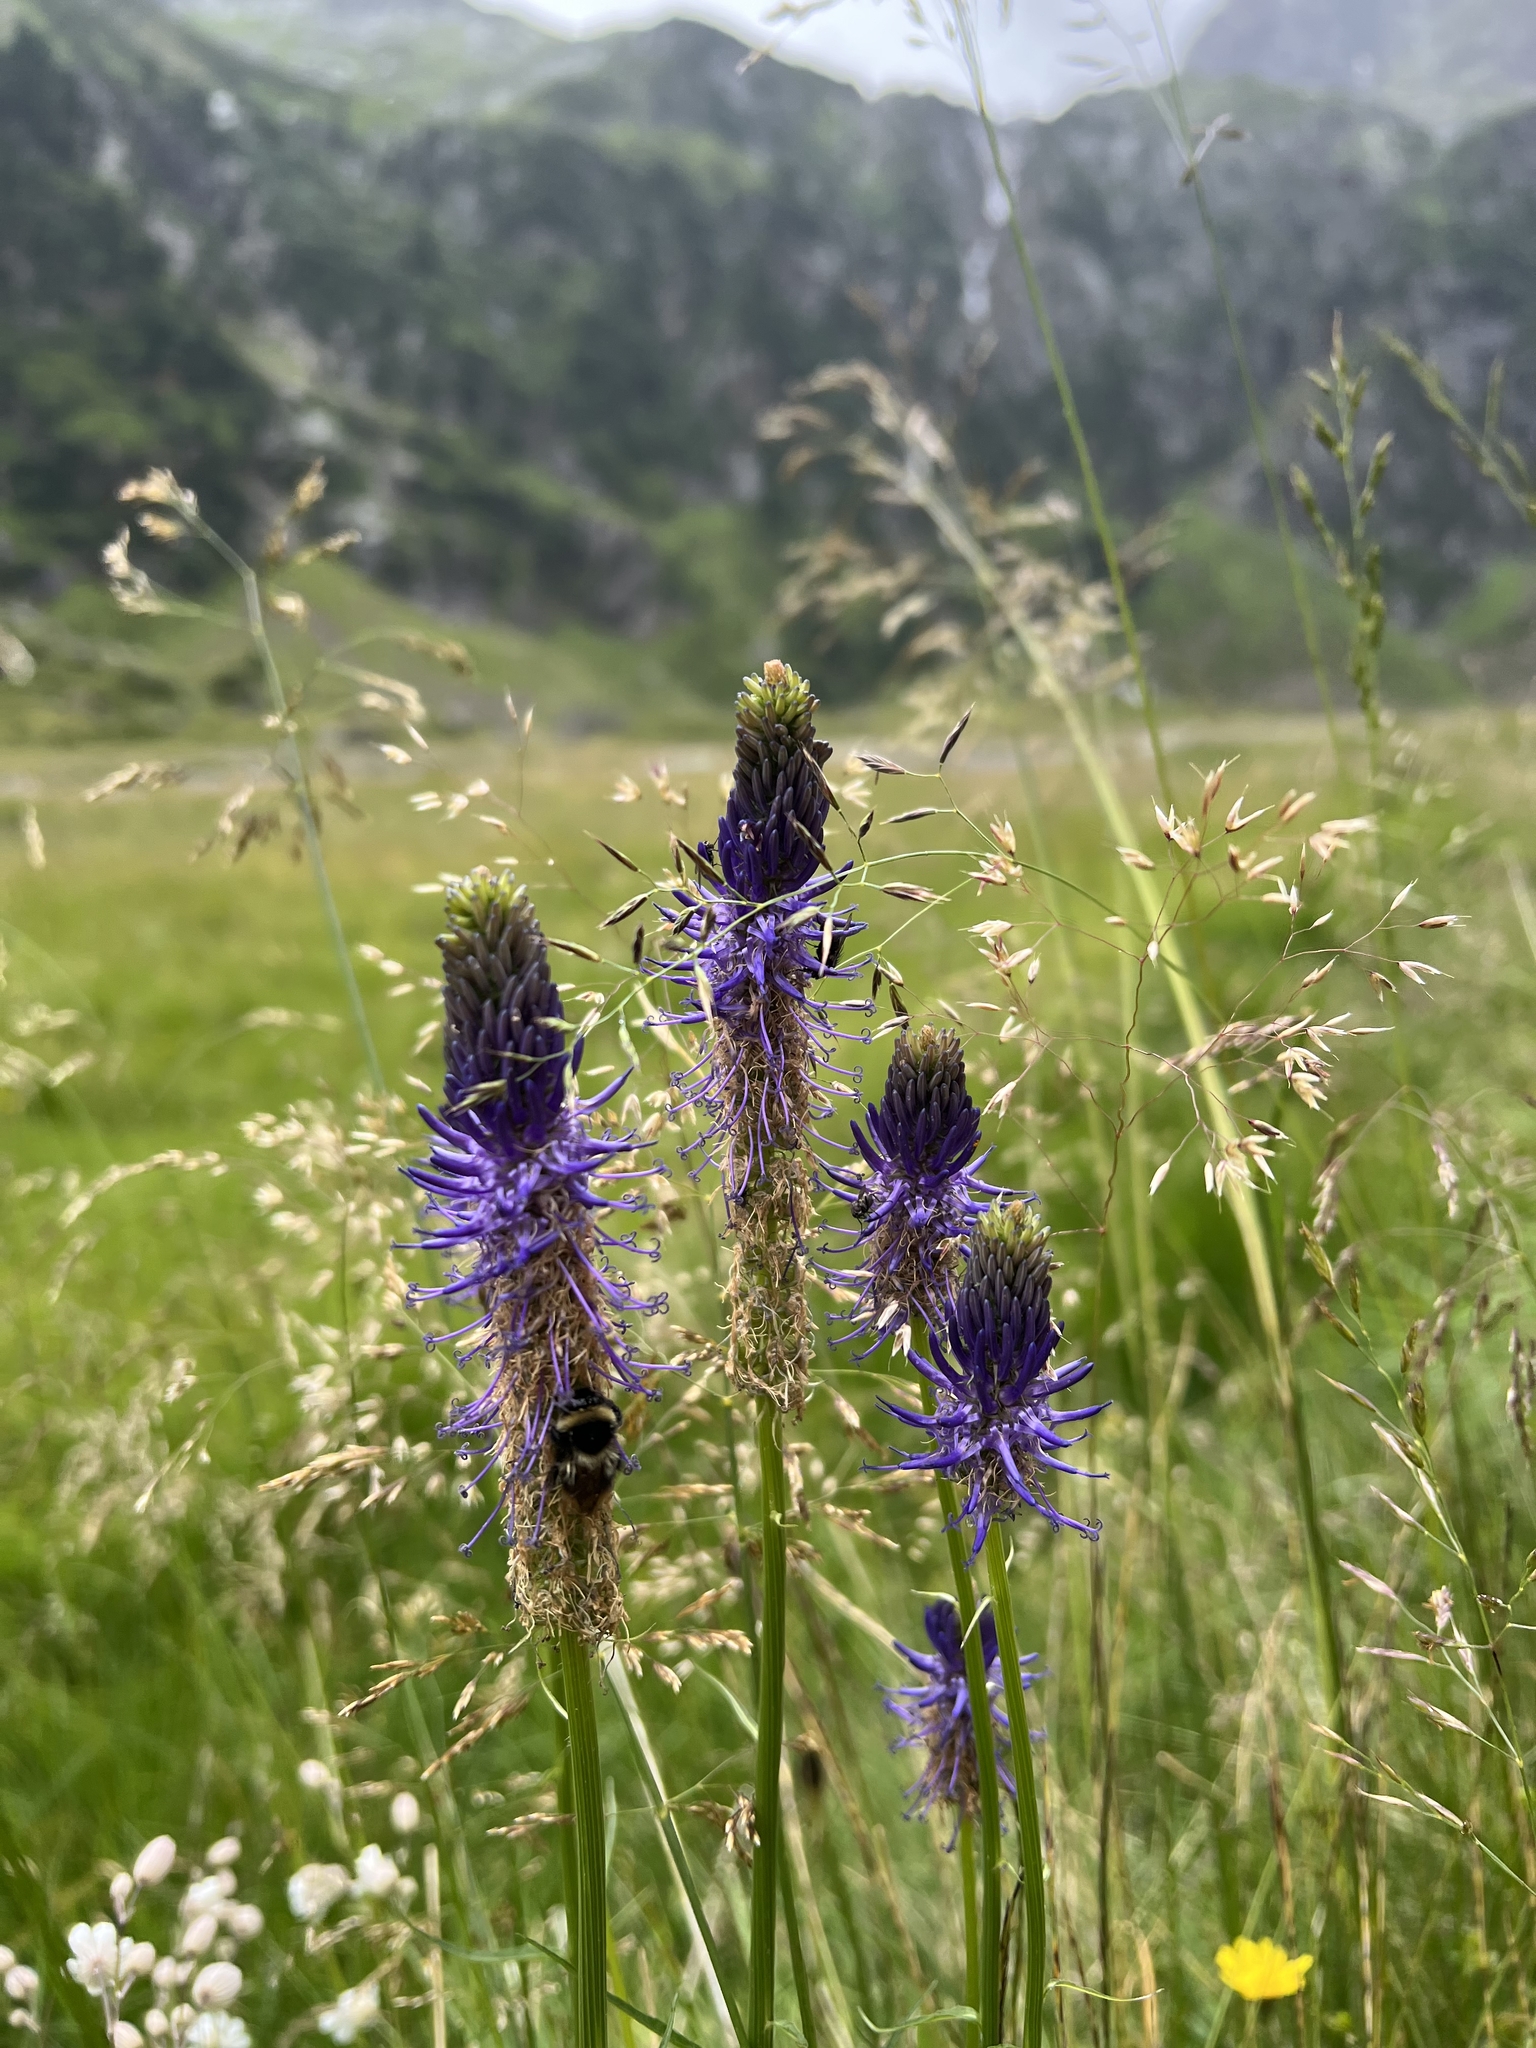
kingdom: Plantae
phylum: Tracheophyta
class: Magnoliopsida
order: Asterales
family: Campanulaceae
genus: Phyteuma
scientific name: Phyteuma betonicifolium
